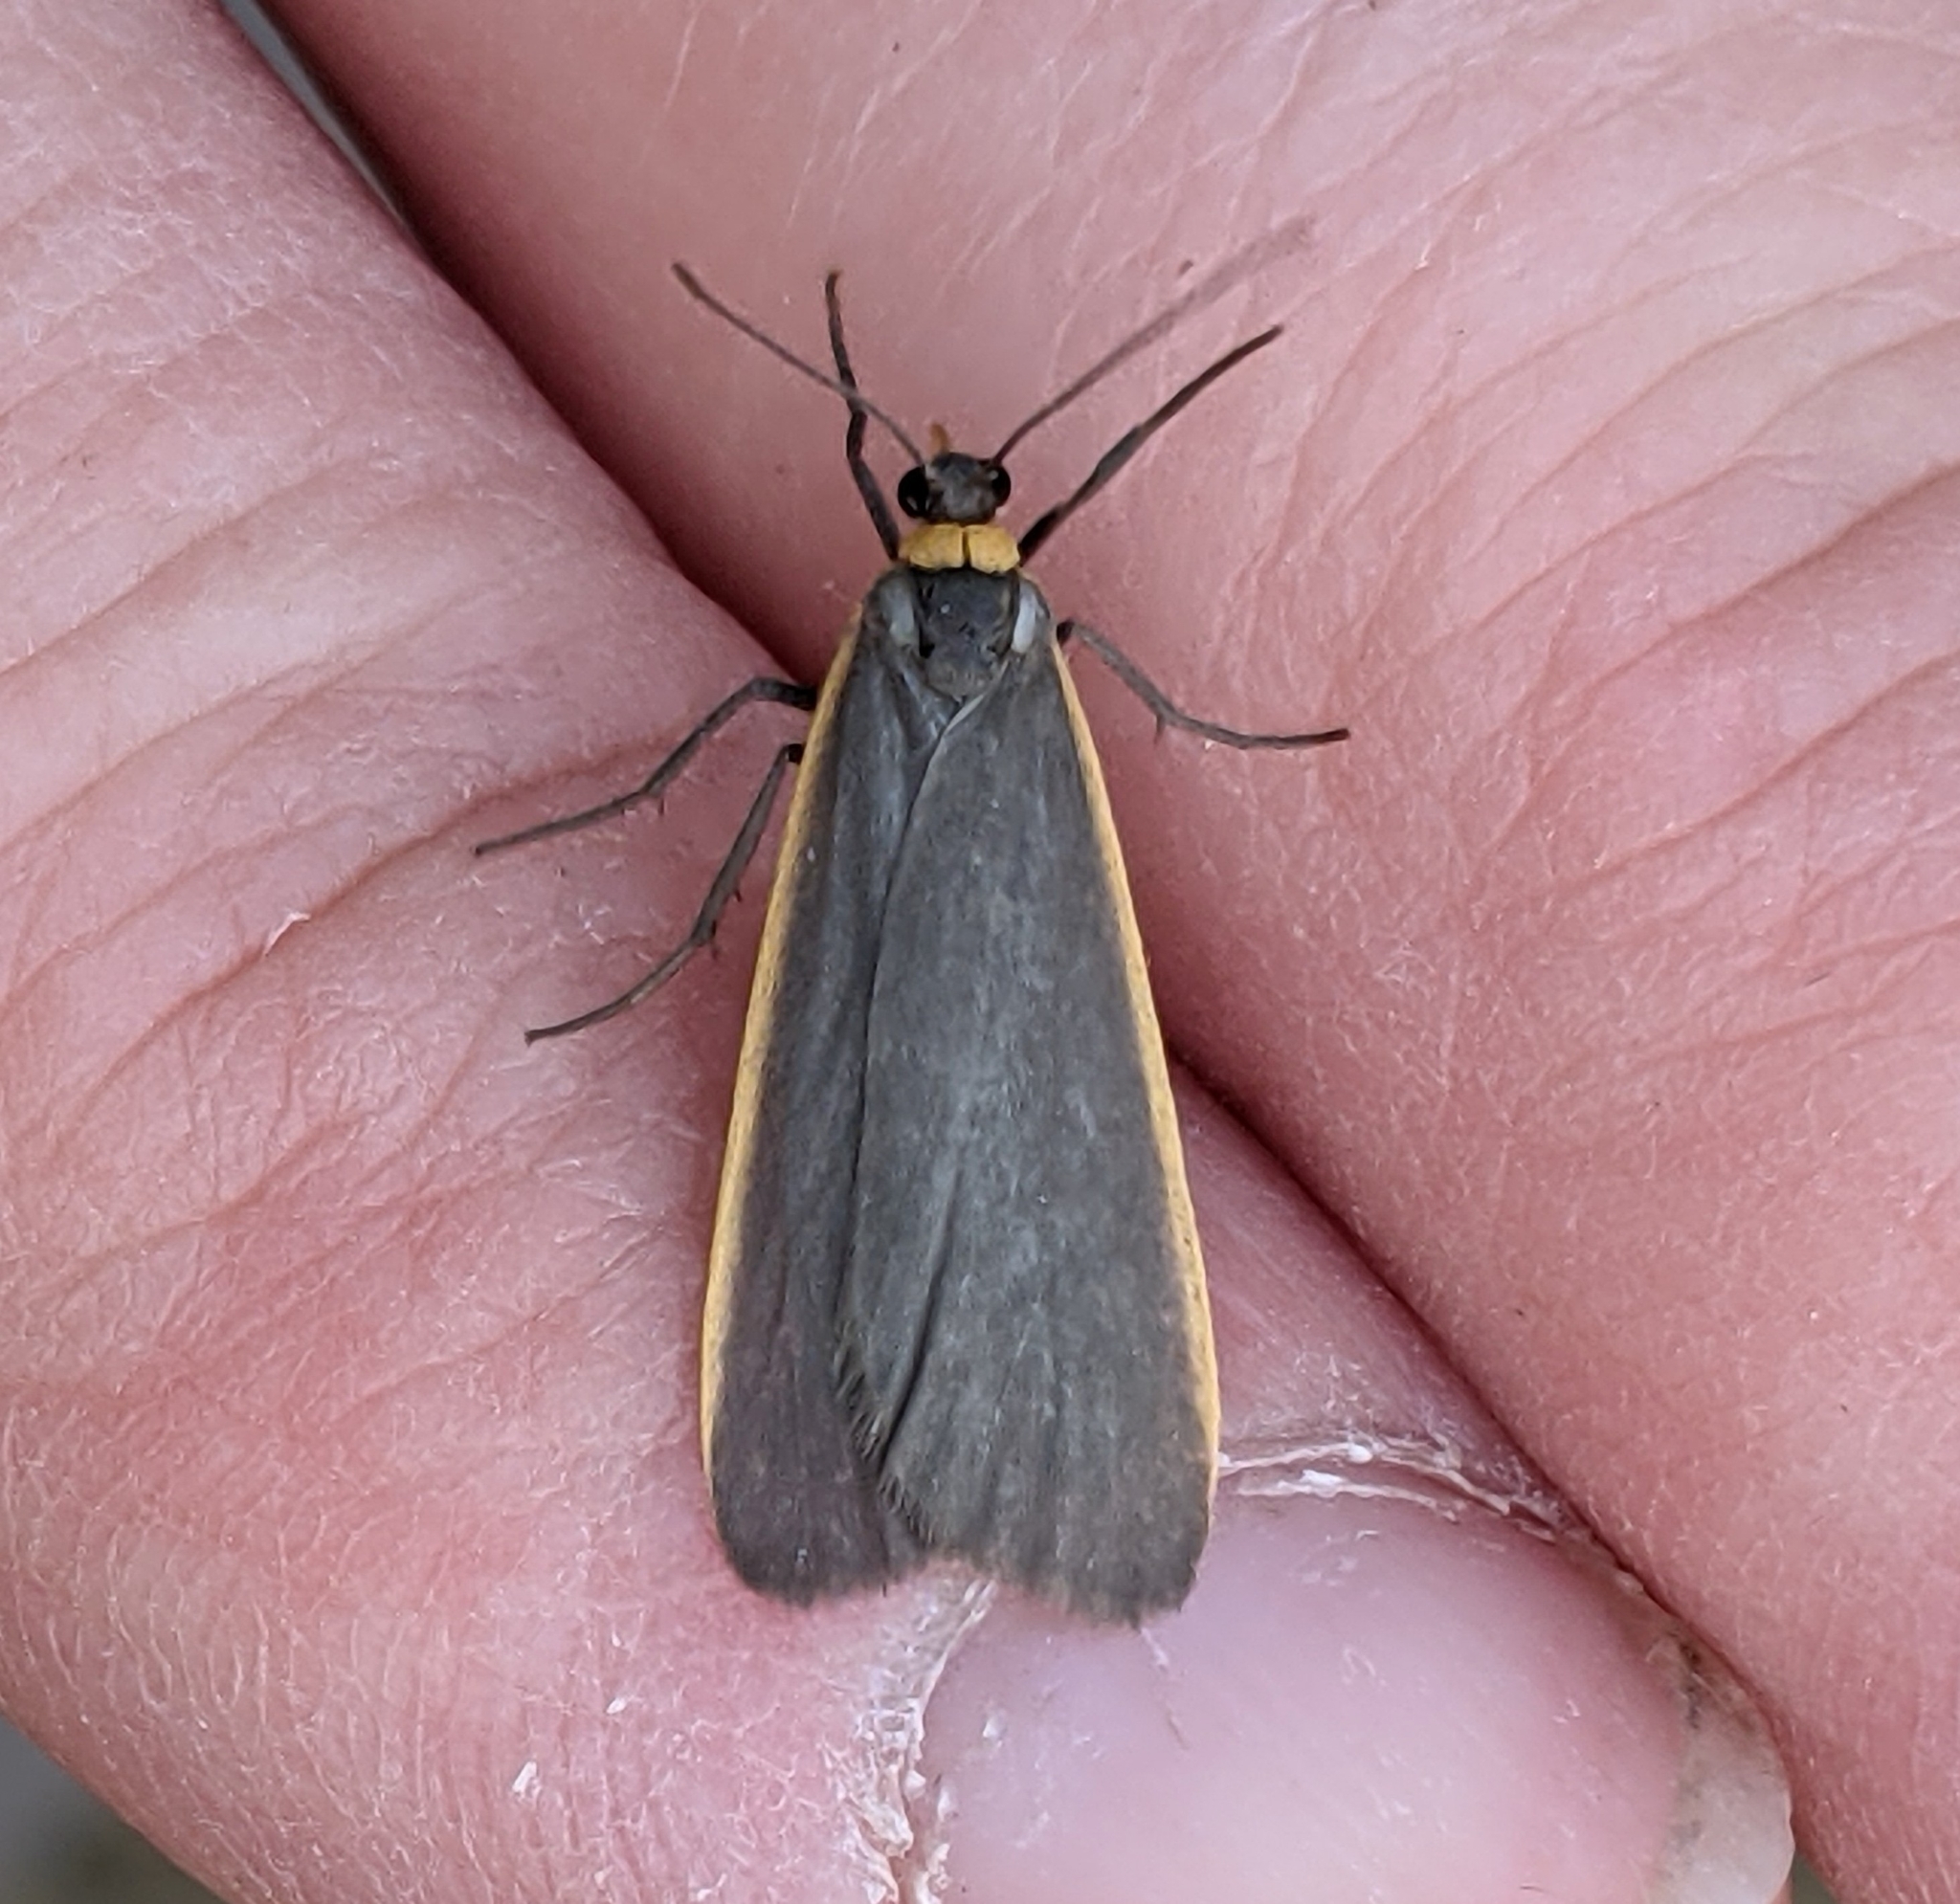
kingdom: Animalia
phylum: Arthropoda
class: Insecta
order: Lepidoptera
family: Erebidae
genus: Manulea
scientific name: Manulea bicolor
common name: Bicolored moth
